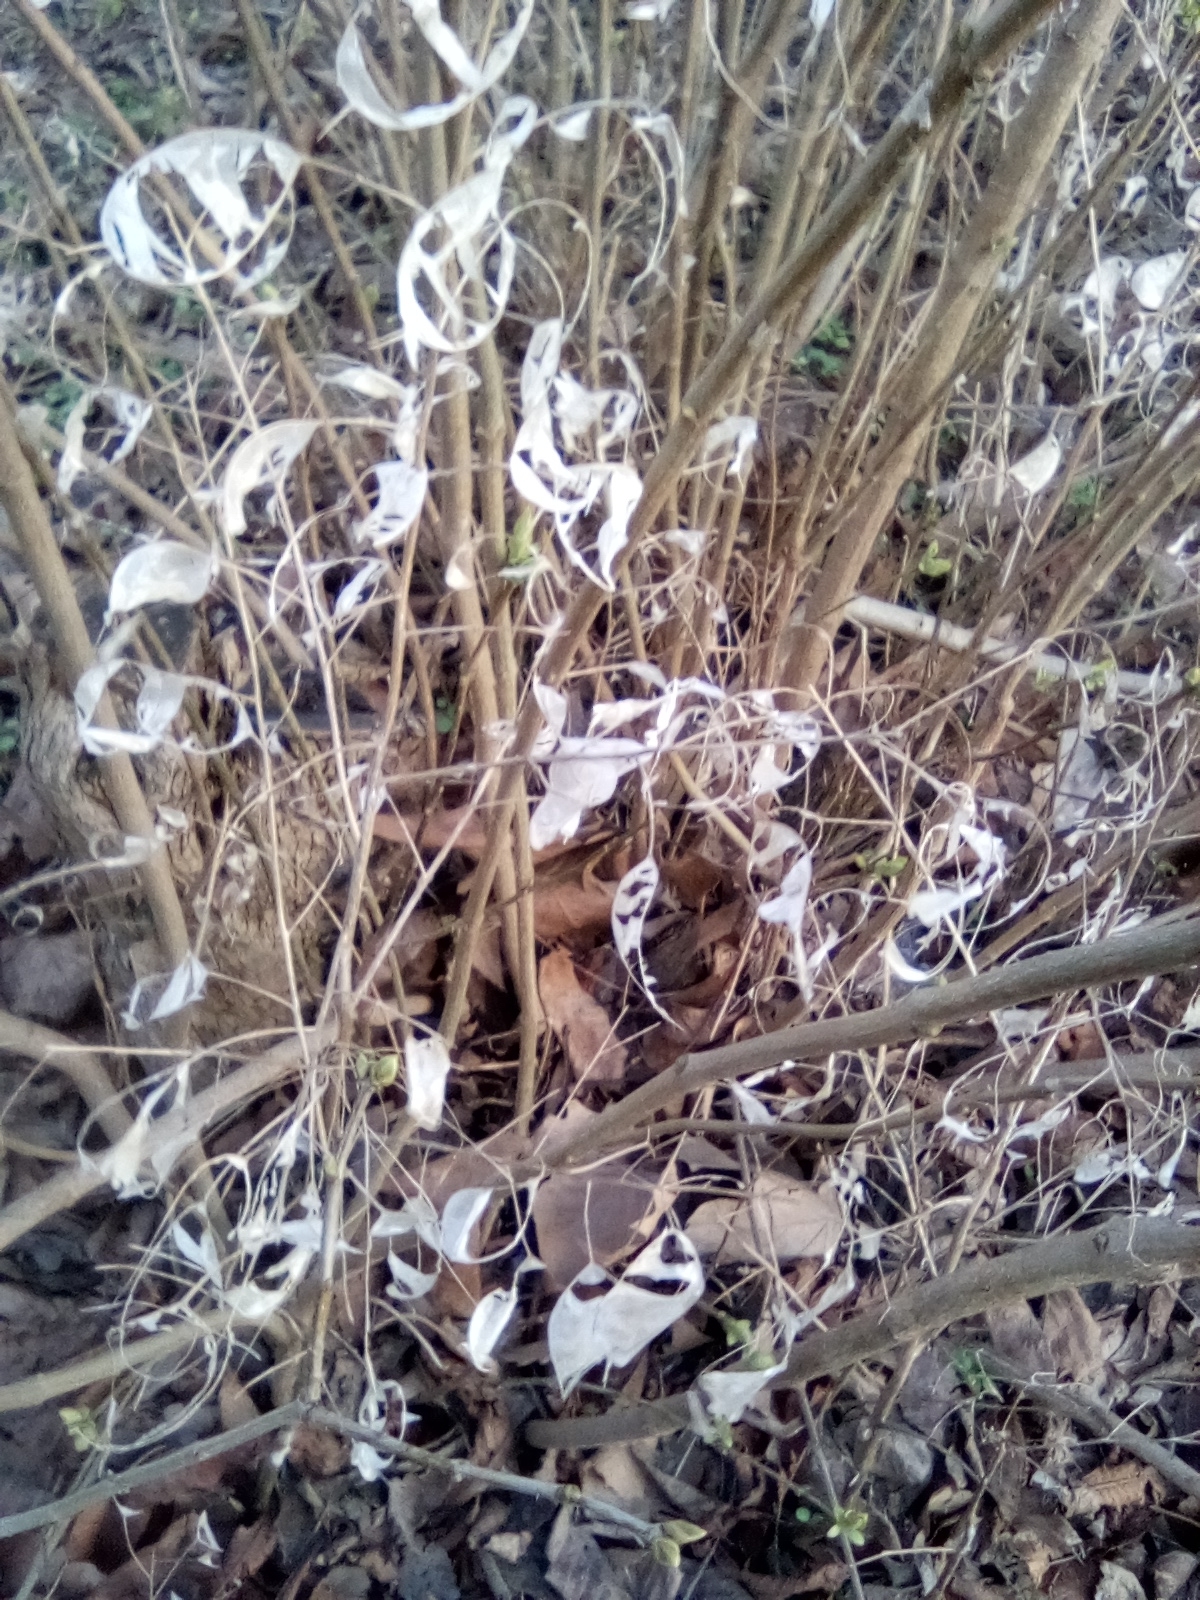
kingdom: Plantae
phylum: Tracheophyta
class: Magnoliopsida
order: Brassicales
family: Brassicaceae
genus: Lunaria
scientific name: Lunaria annua
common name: Honesty
